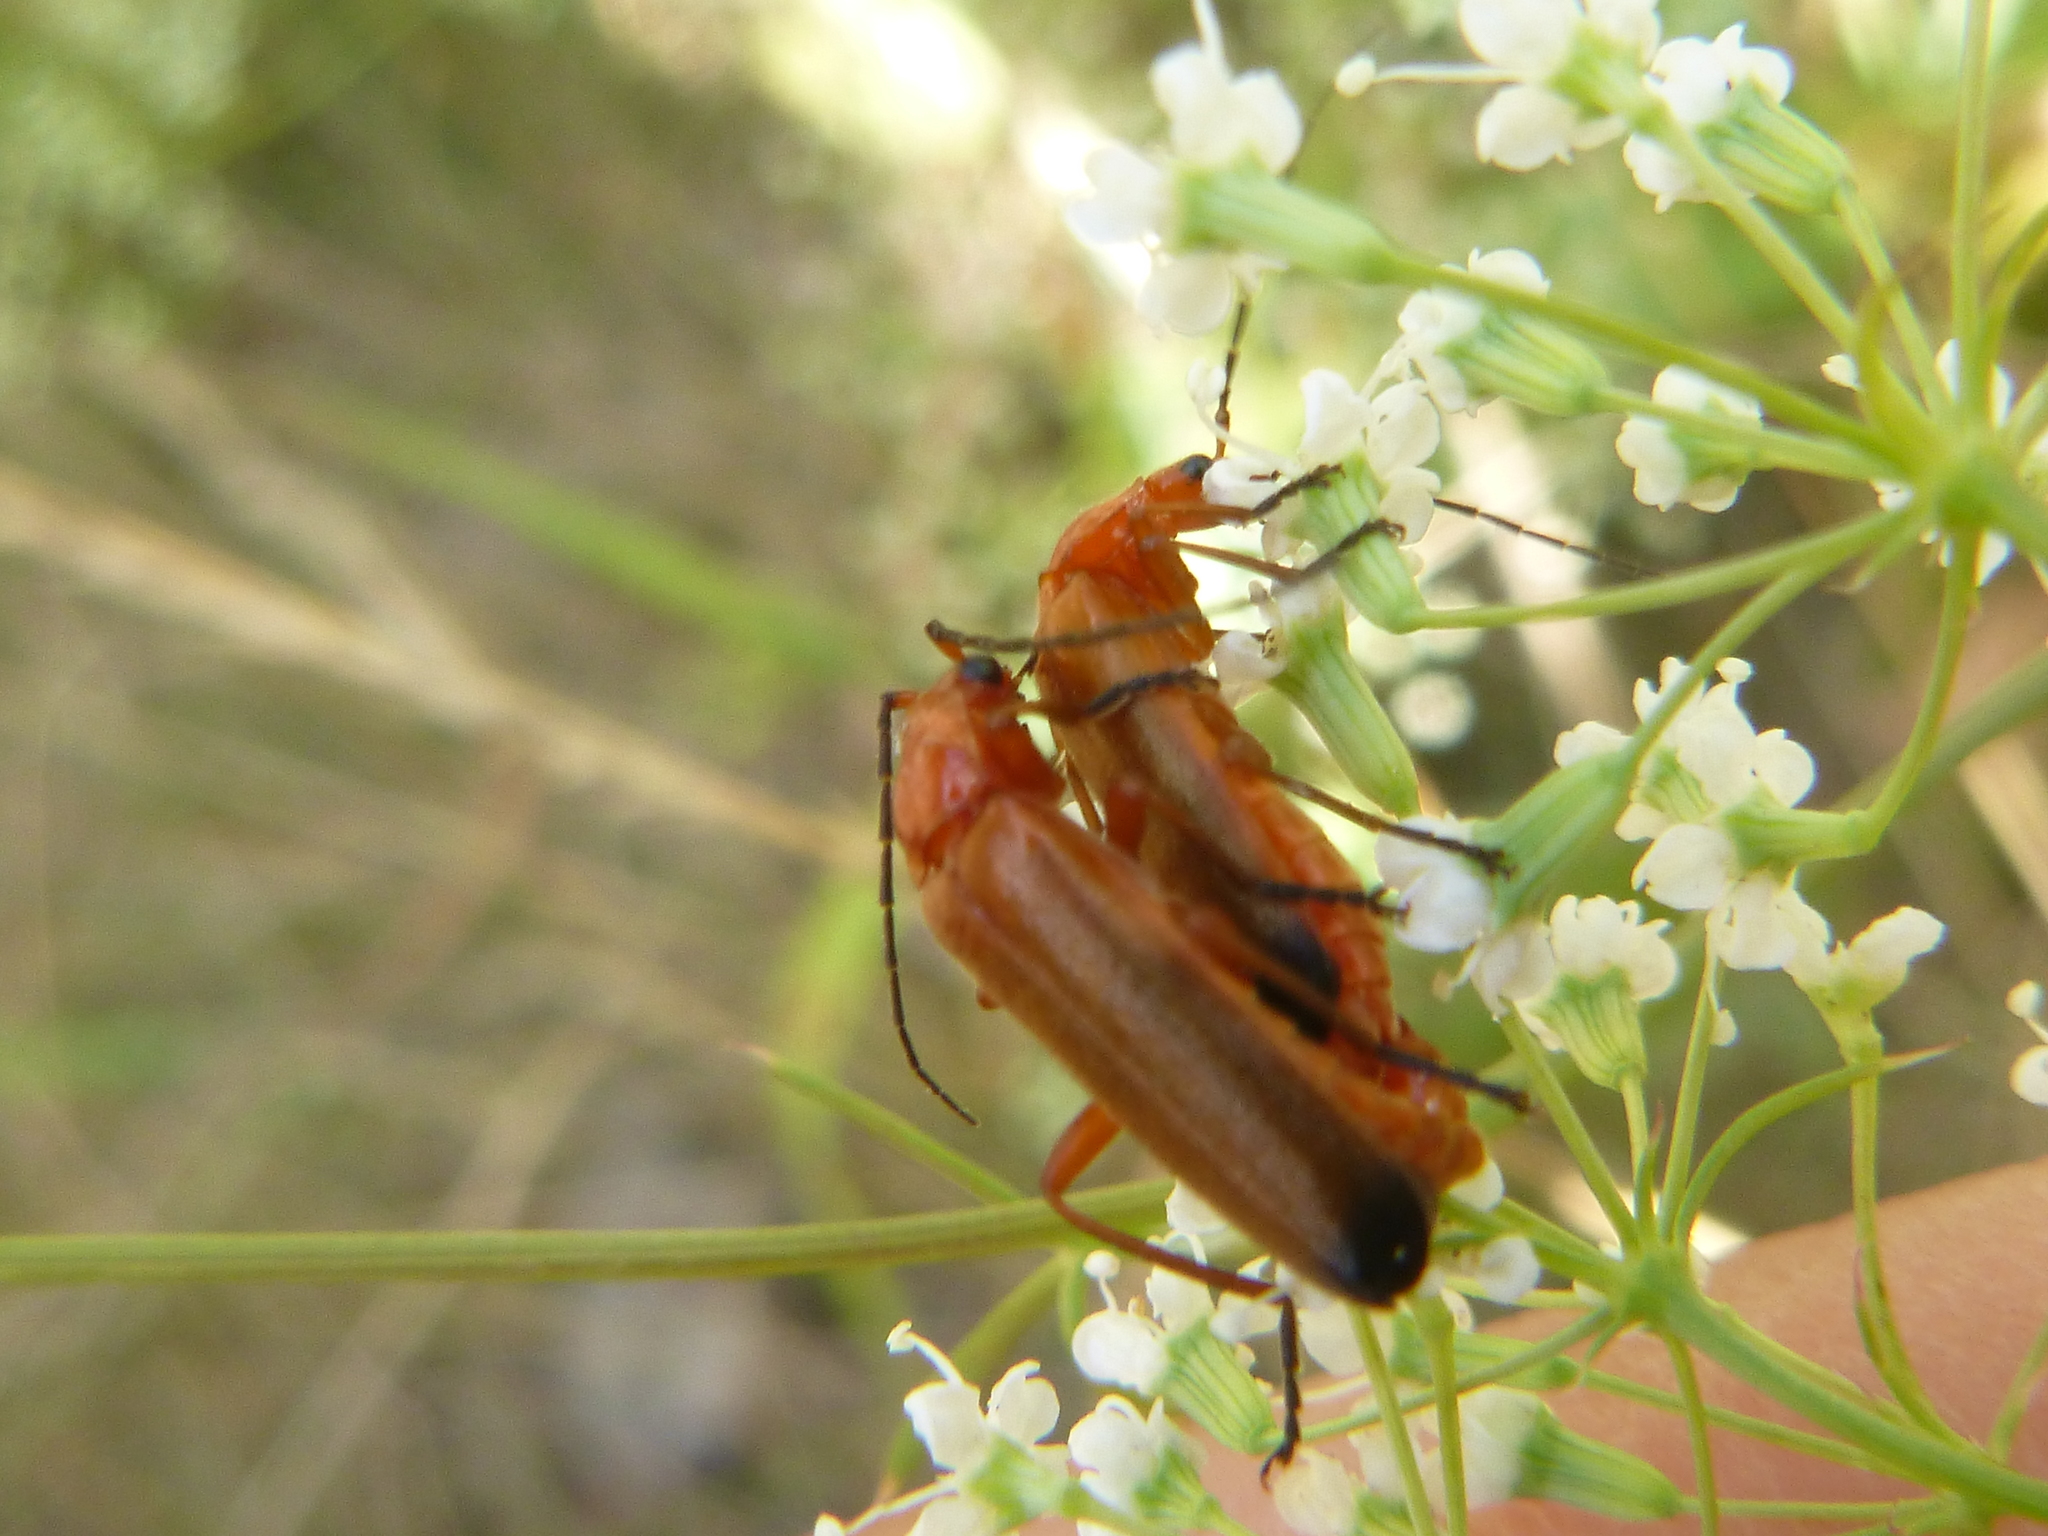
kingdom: Animalia
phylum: Arthropoda
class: Insecta
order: Coleoptera
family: Cantharidae
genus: Rhagonycha
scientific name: Rhagonycha fulva
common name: Common red soldier beetle
